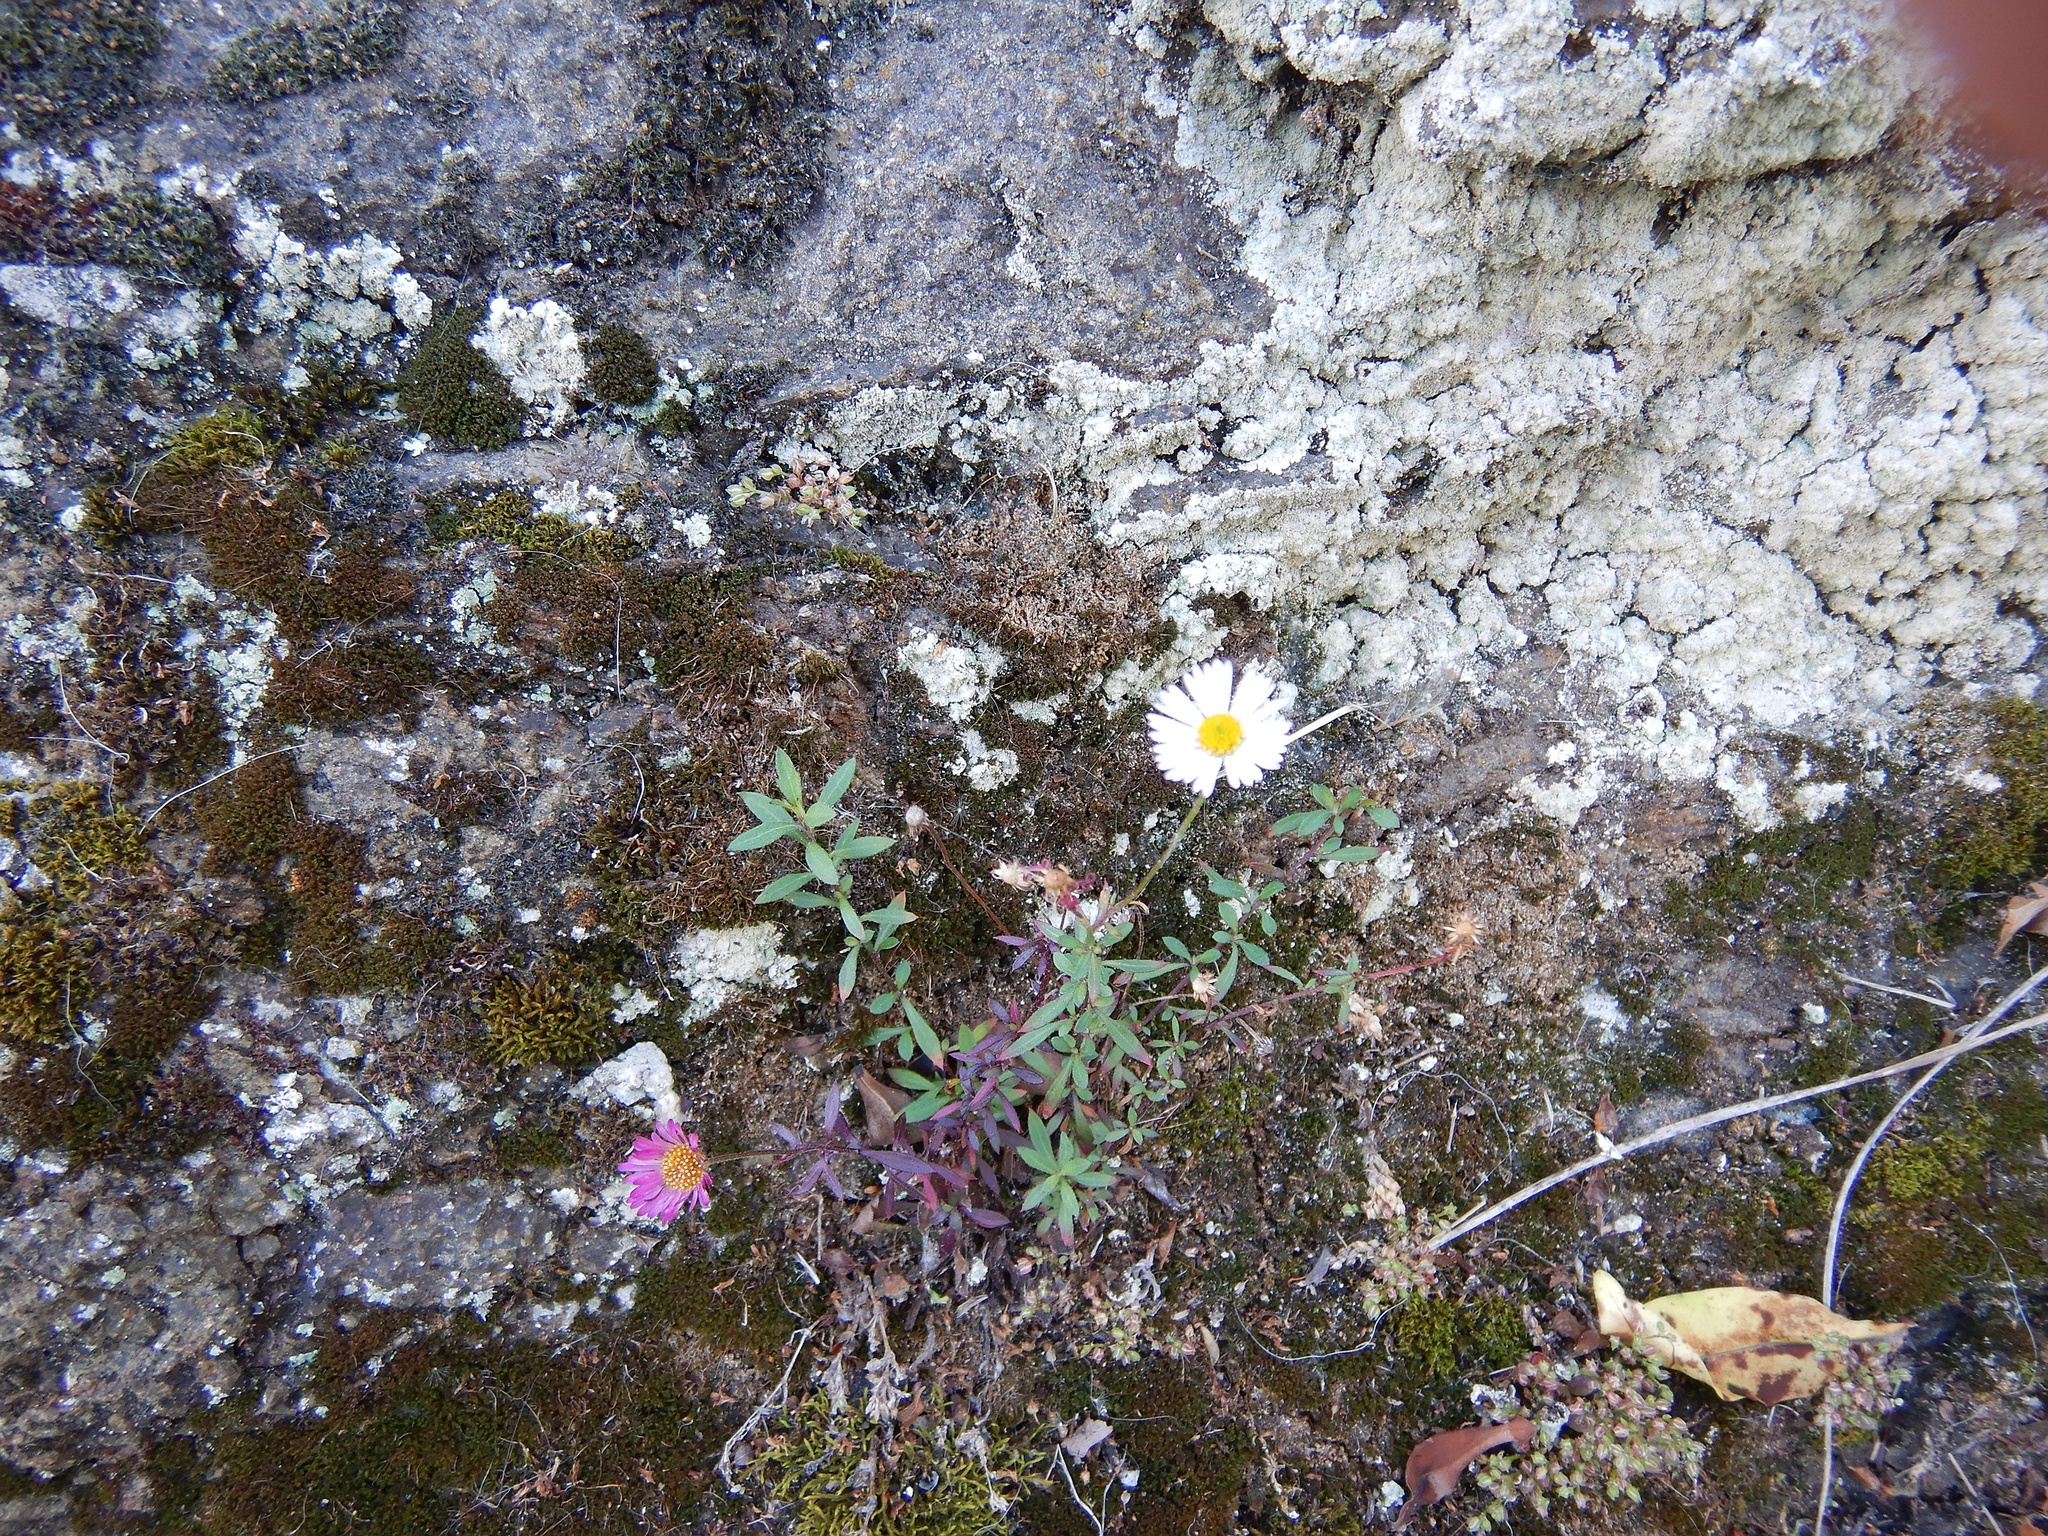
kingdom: Plantae
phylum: Tracheophyta
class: Magnoliopsida
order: Asterales
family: Asteraceae
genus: Erigeron
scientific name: Erigeron karvinskianus
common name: Mexican fleabane
